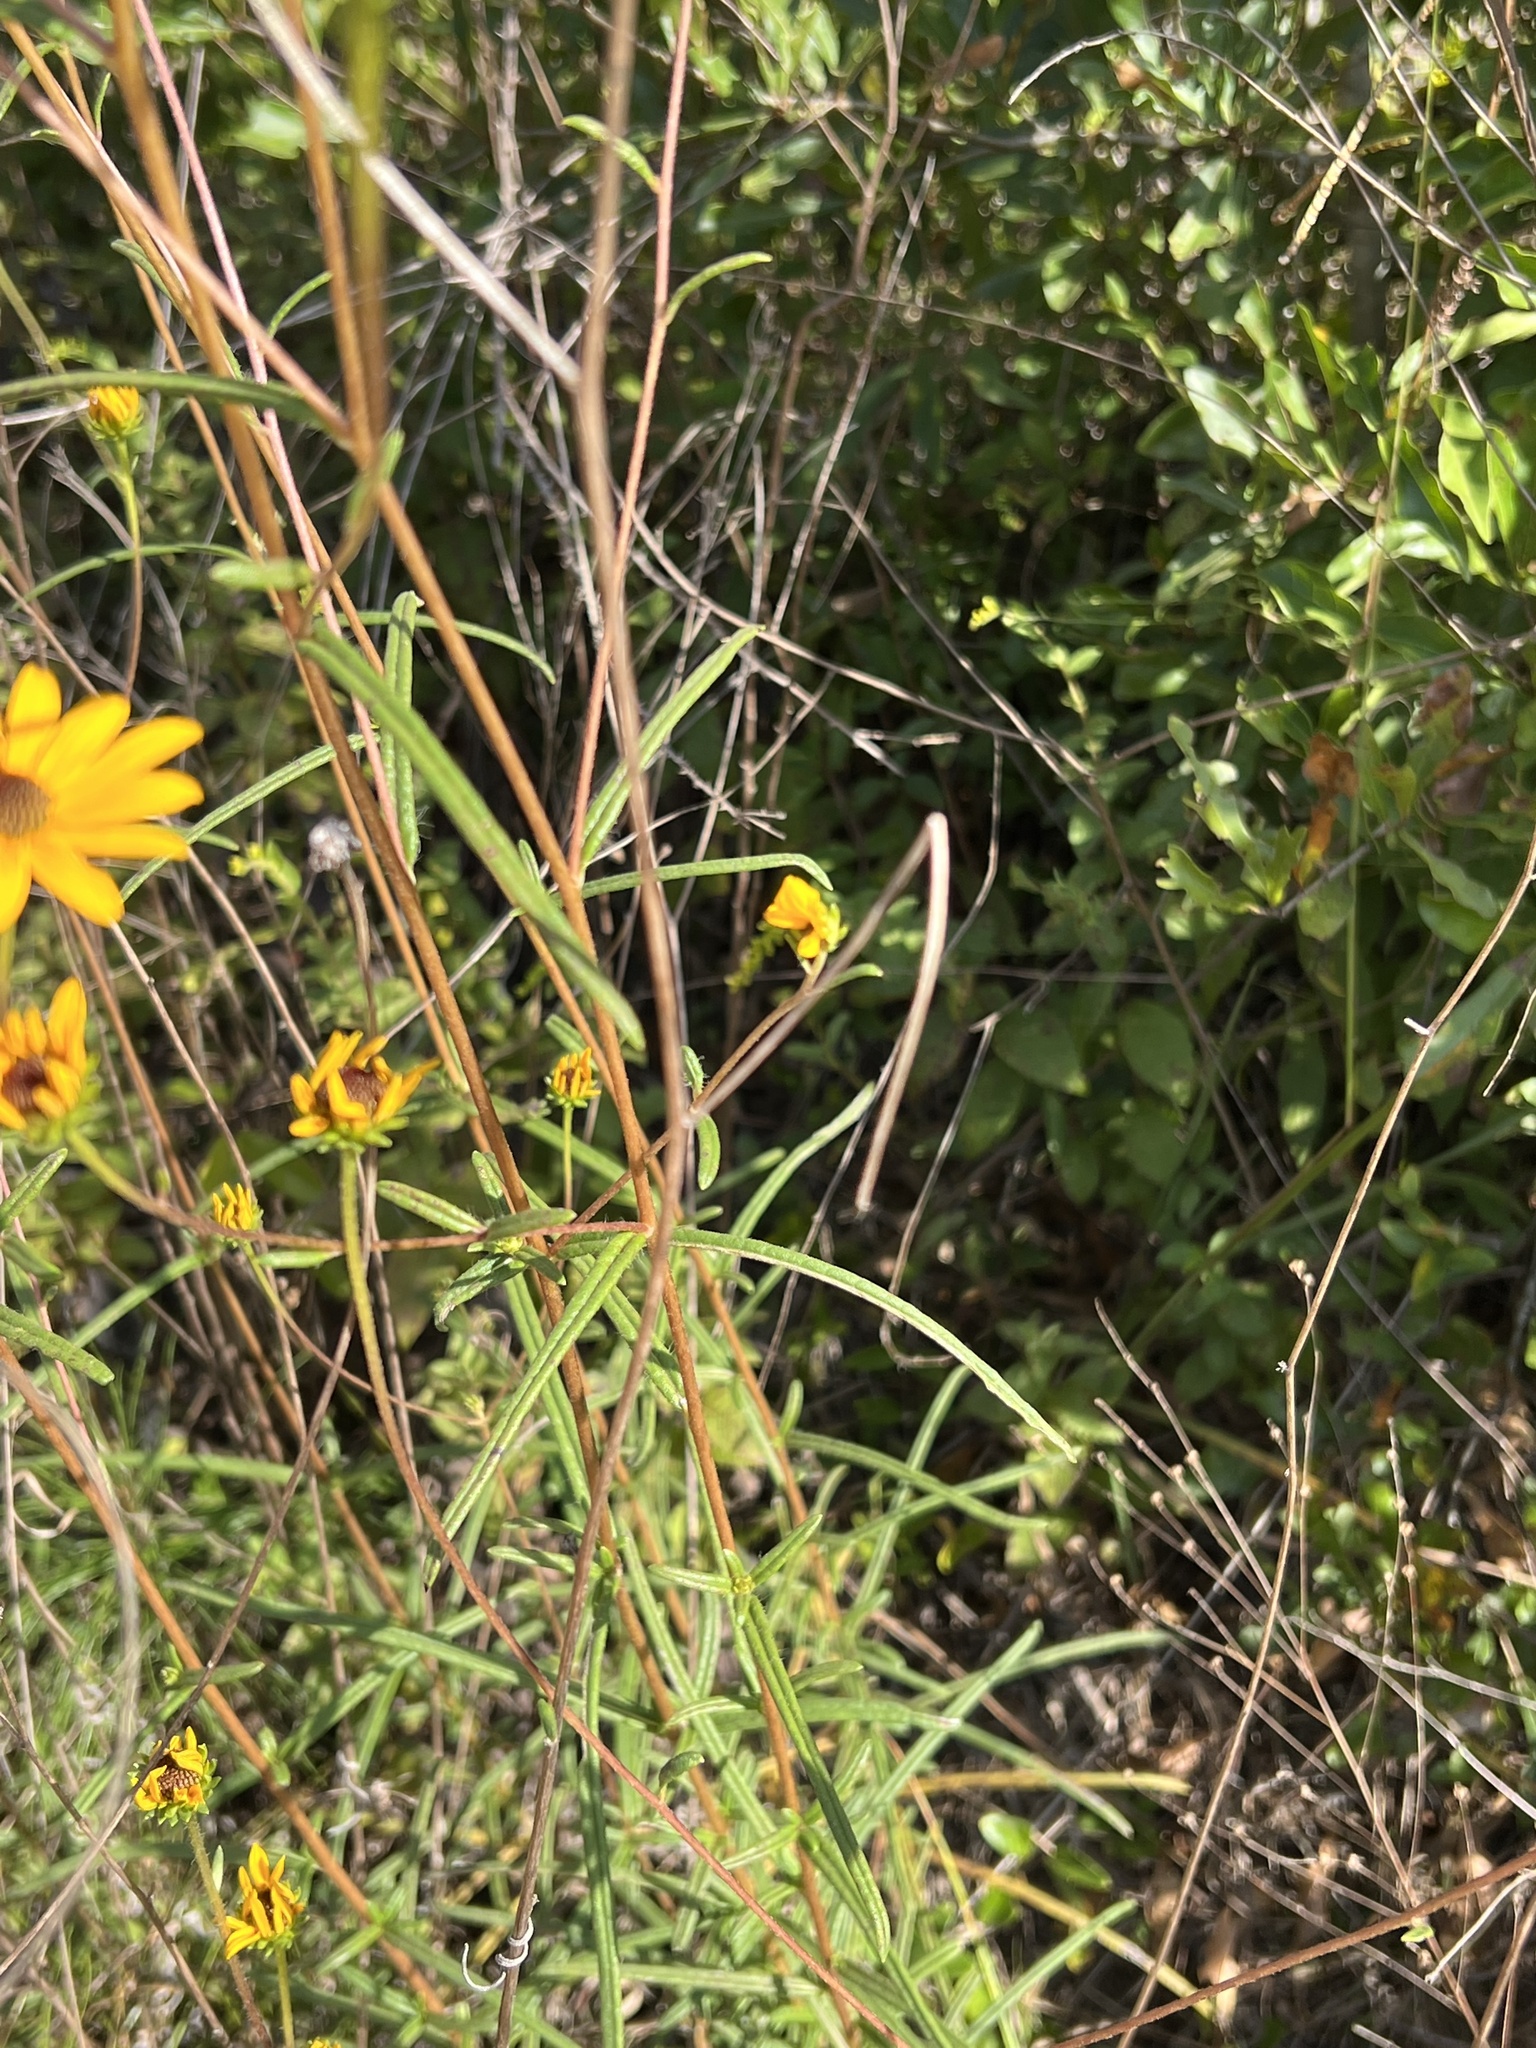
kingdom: Plantae
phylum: Tracheophyta
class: Magnoliopsida
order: Asterales
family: Asteraceae
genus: Helianthus
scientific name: Helianthus angustifolius
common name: Swamp sunflower
